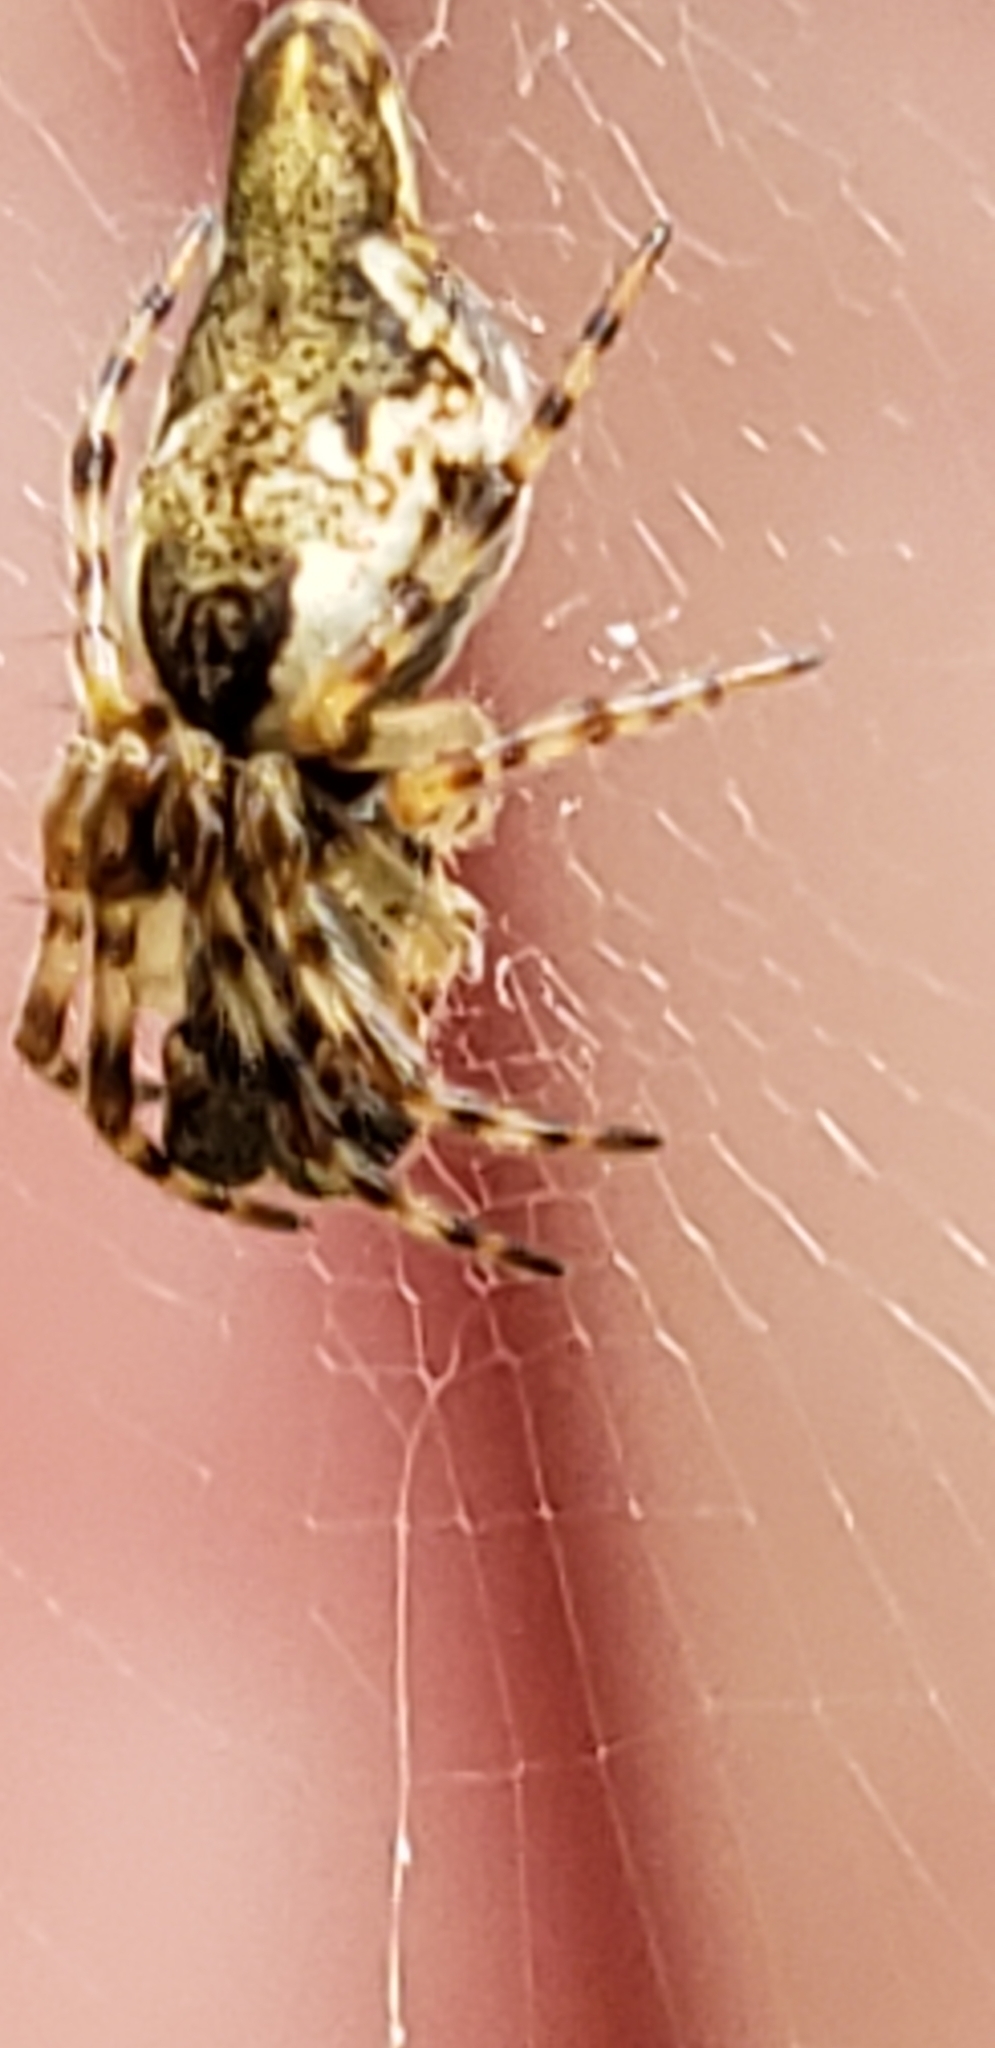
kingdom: Animalia
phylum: Arthropoda
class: Arachnida
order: Araneae
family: Araneidae
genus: Cyclosa
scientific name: Cyclosa conica
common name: Conical trashline orbweaver
